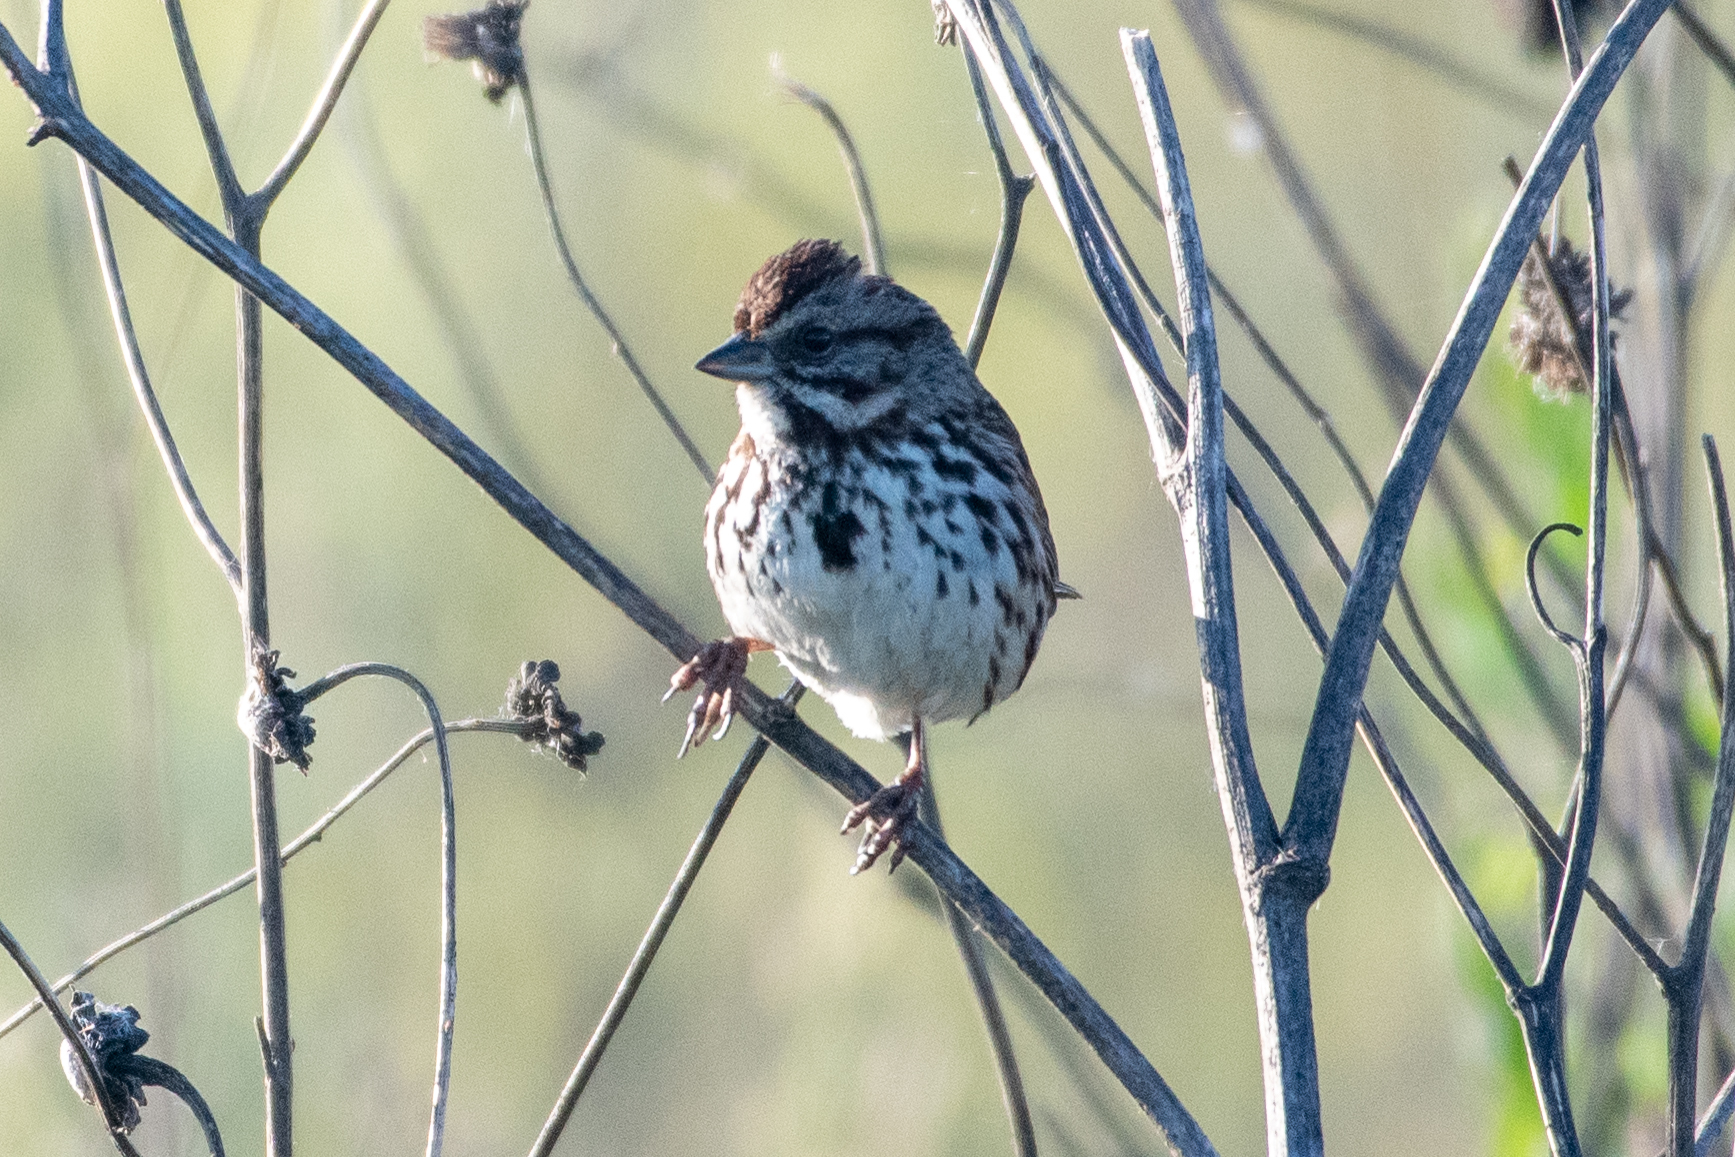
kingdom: Animalia
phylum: Chordata
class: Aves
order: Passeriformes
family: Passerellidae
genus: Melospiza
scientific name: Melospiza melodia
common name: Song sparrow
